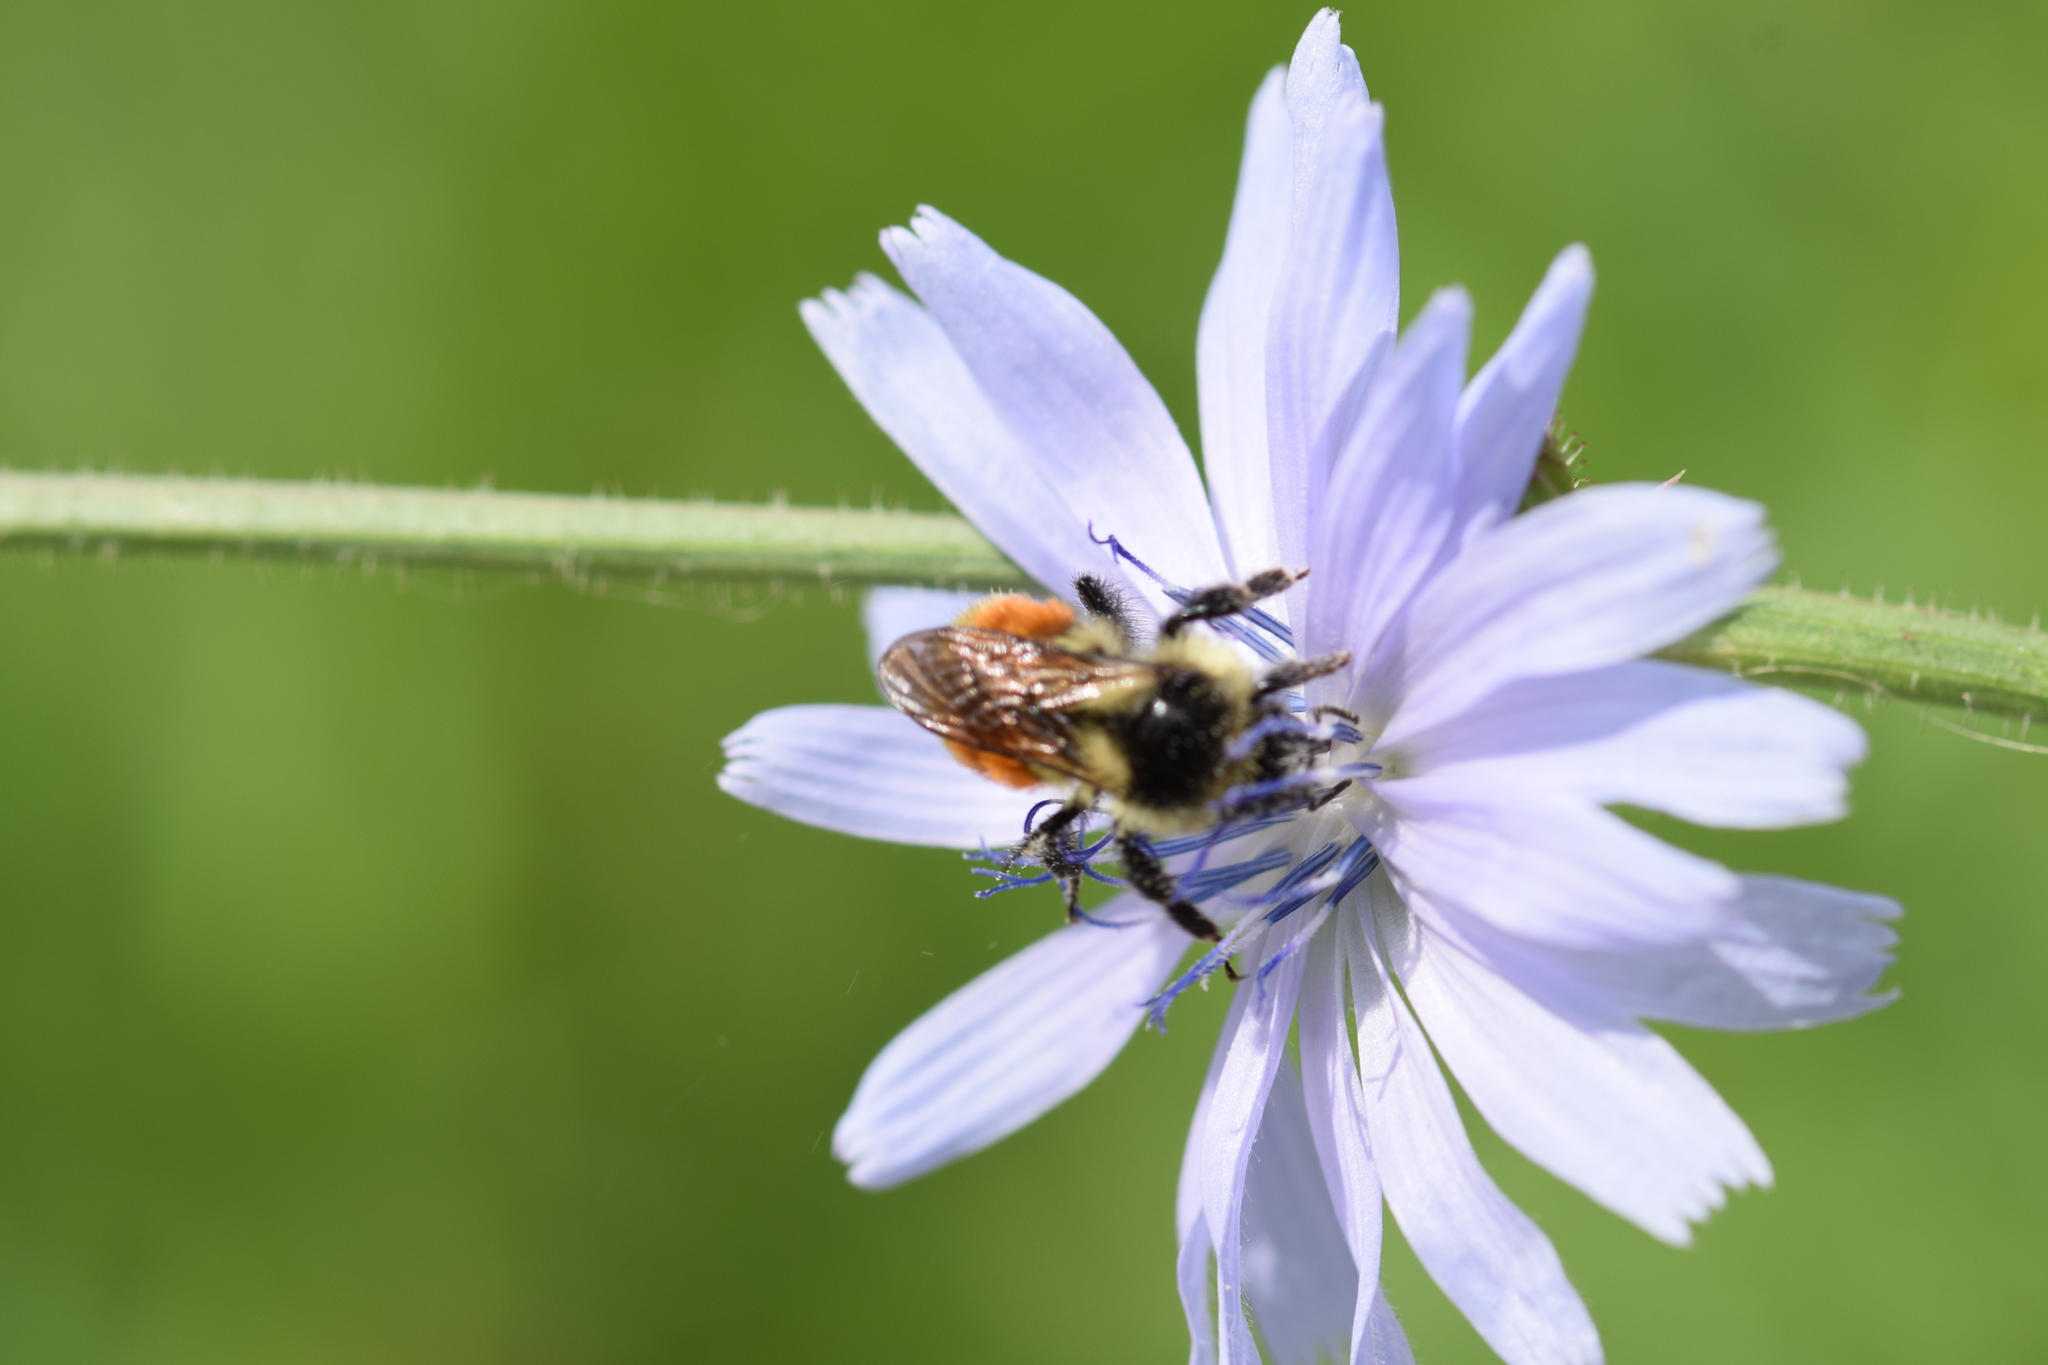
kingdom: Animalia
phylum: Arthropoda
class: Insecta
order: Hymenoptera
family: Apidae
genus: Bombus
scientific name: Bombus ternarius
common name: Tri-colored bumble bee
